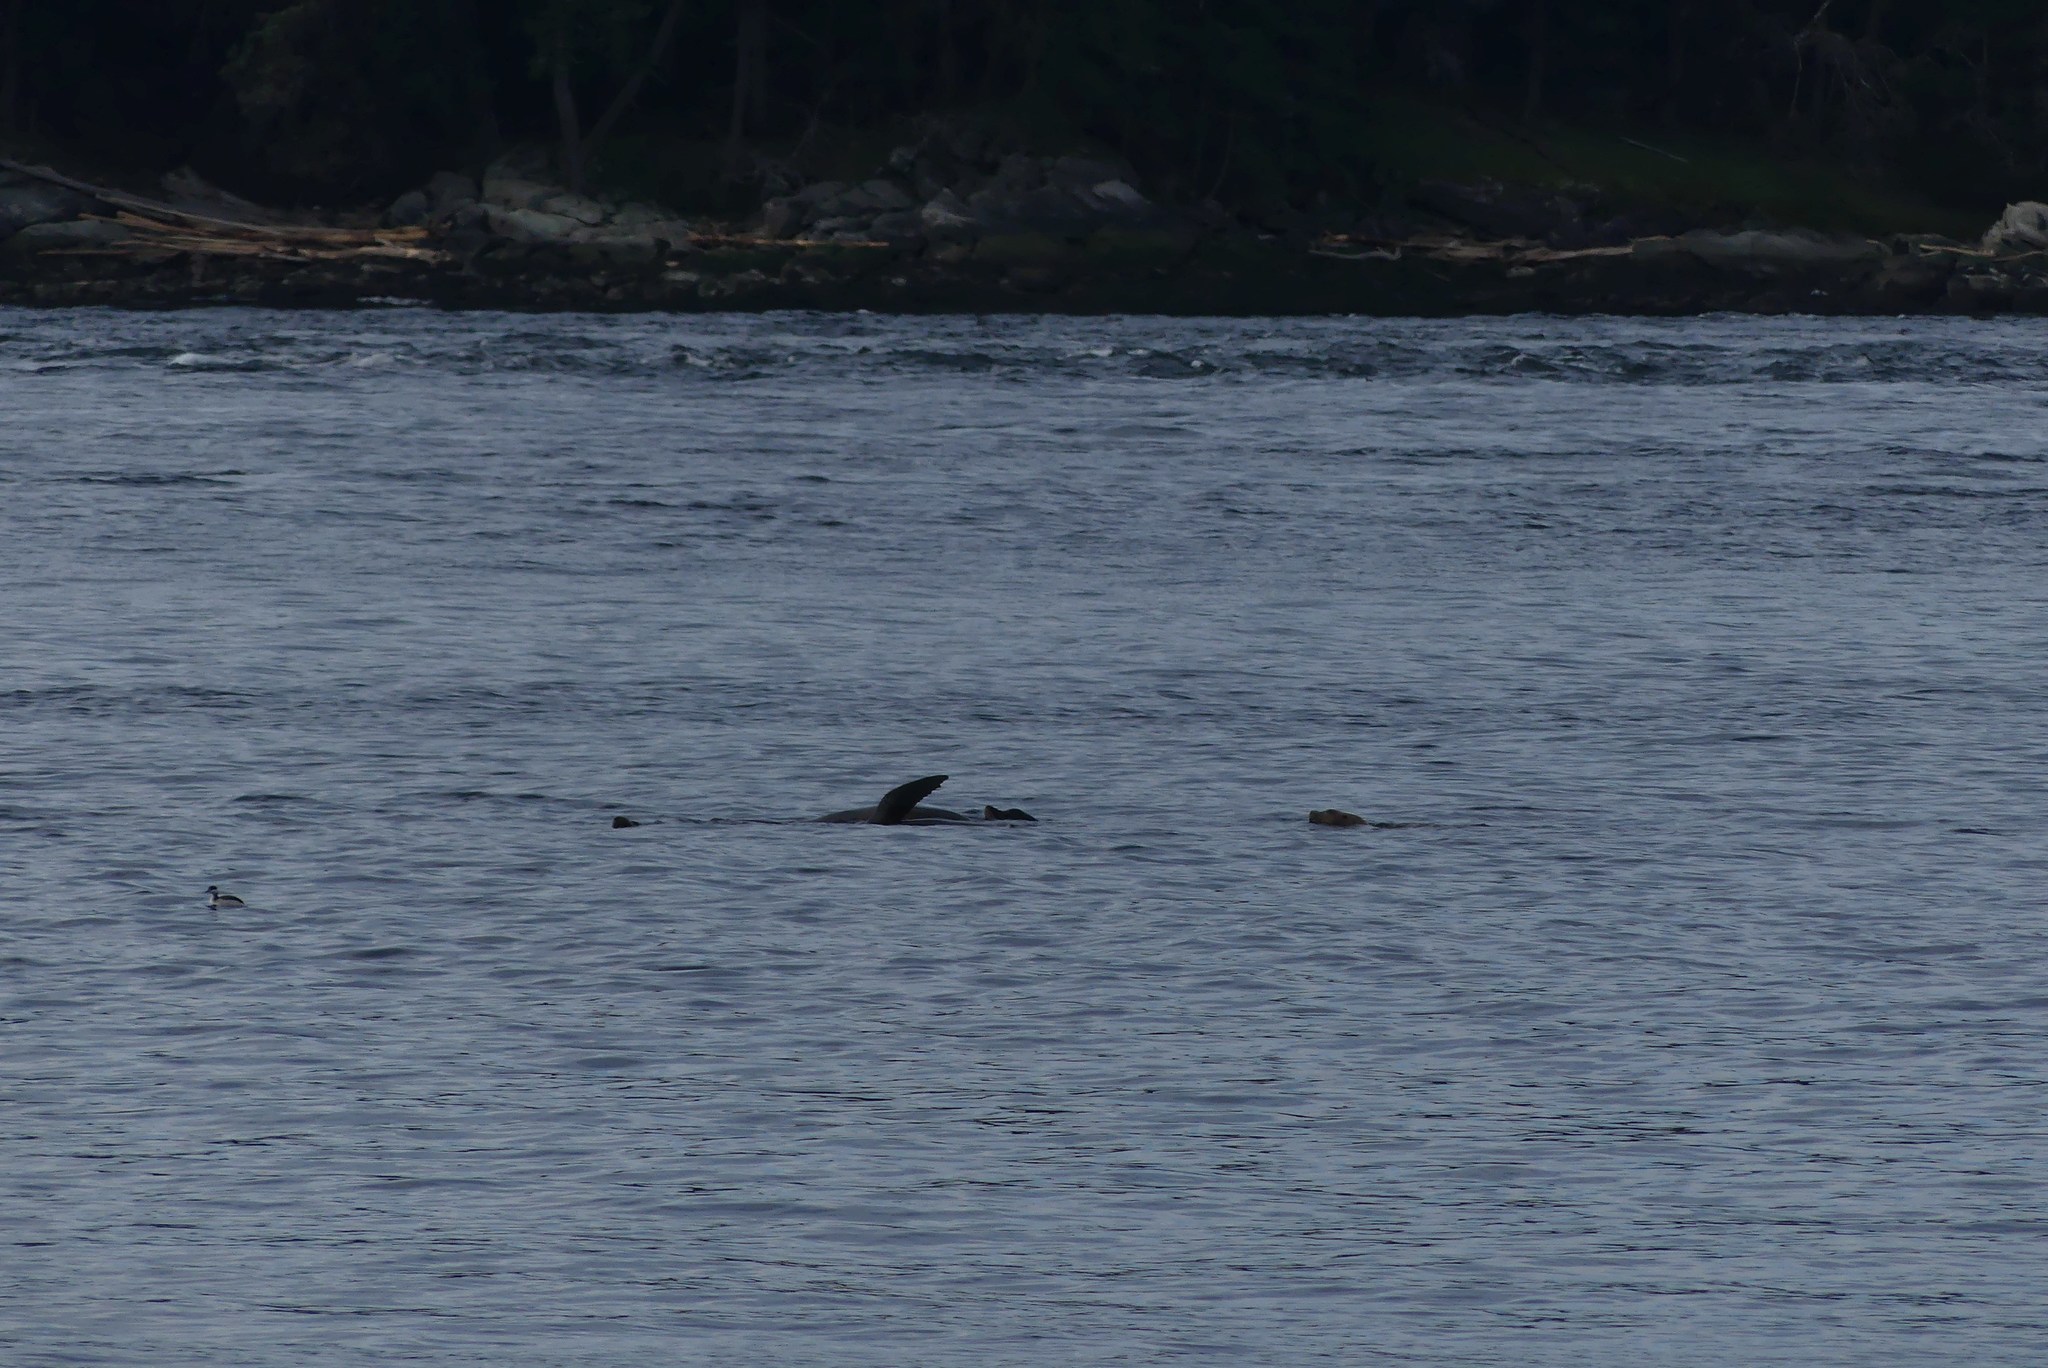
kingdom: Animalia
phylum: Chordata
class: Mammalia
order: Carnivora
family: Otariidae
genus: Eumetopias
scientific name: Eumetopias jubatus
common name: Steller sea lion
